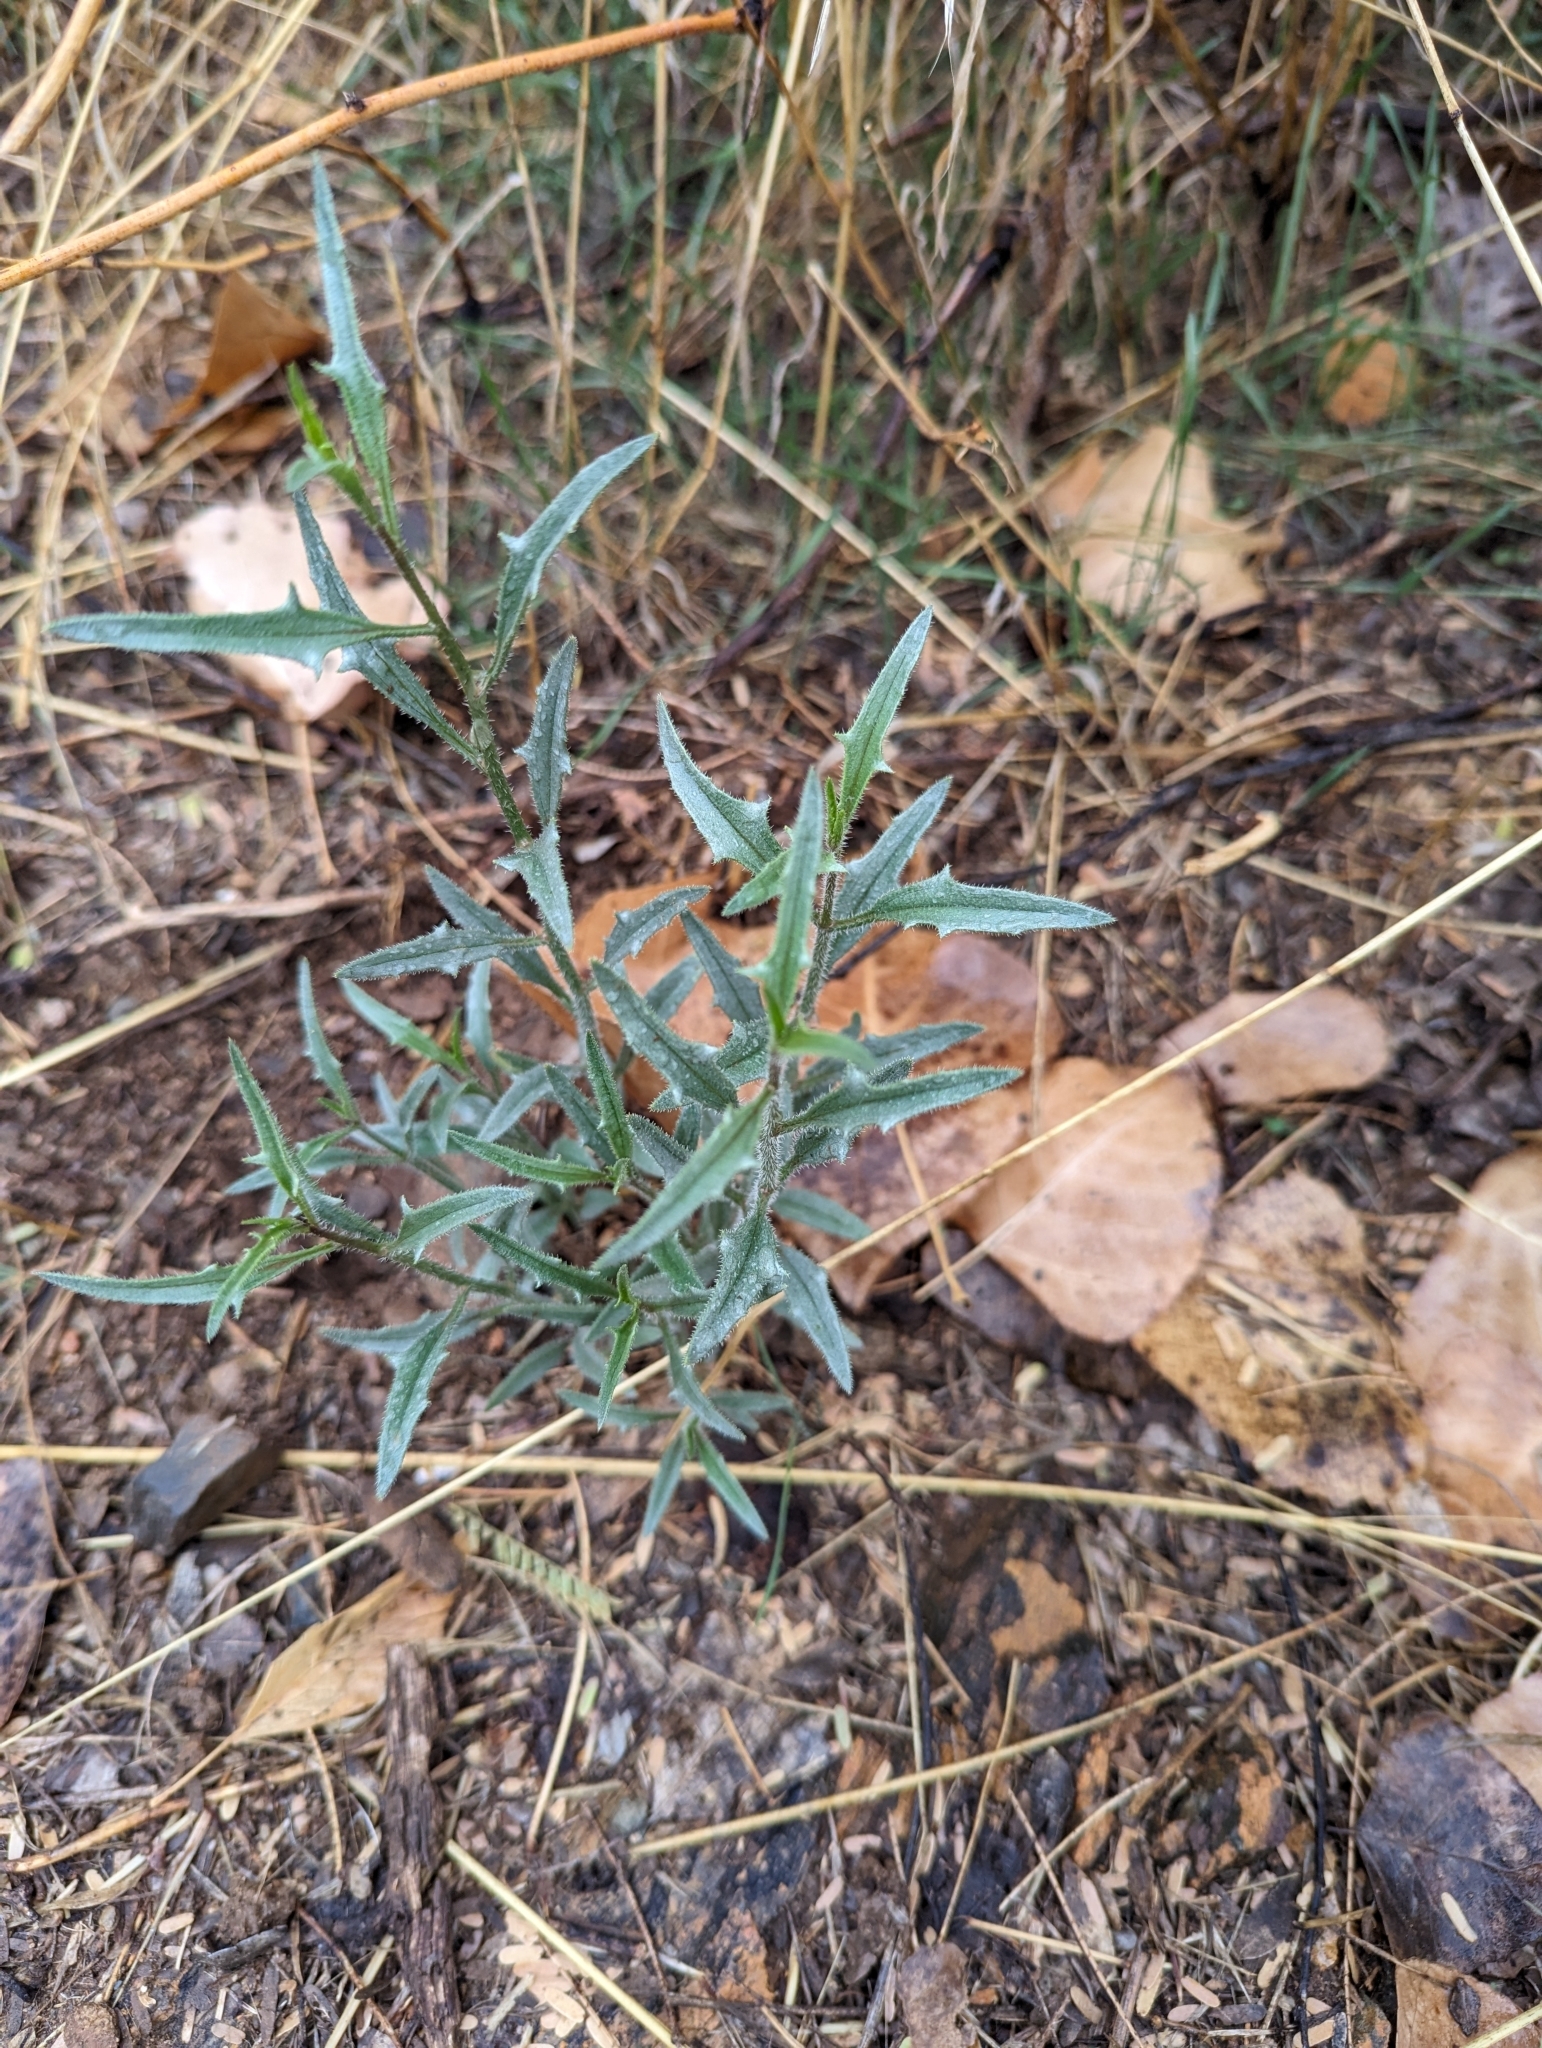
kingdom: Plantae
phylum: Tracheophyta
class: Magnoliopsida
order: Asterales
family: Asteraceae
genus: Bebbia
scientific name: Bebbia juncea
